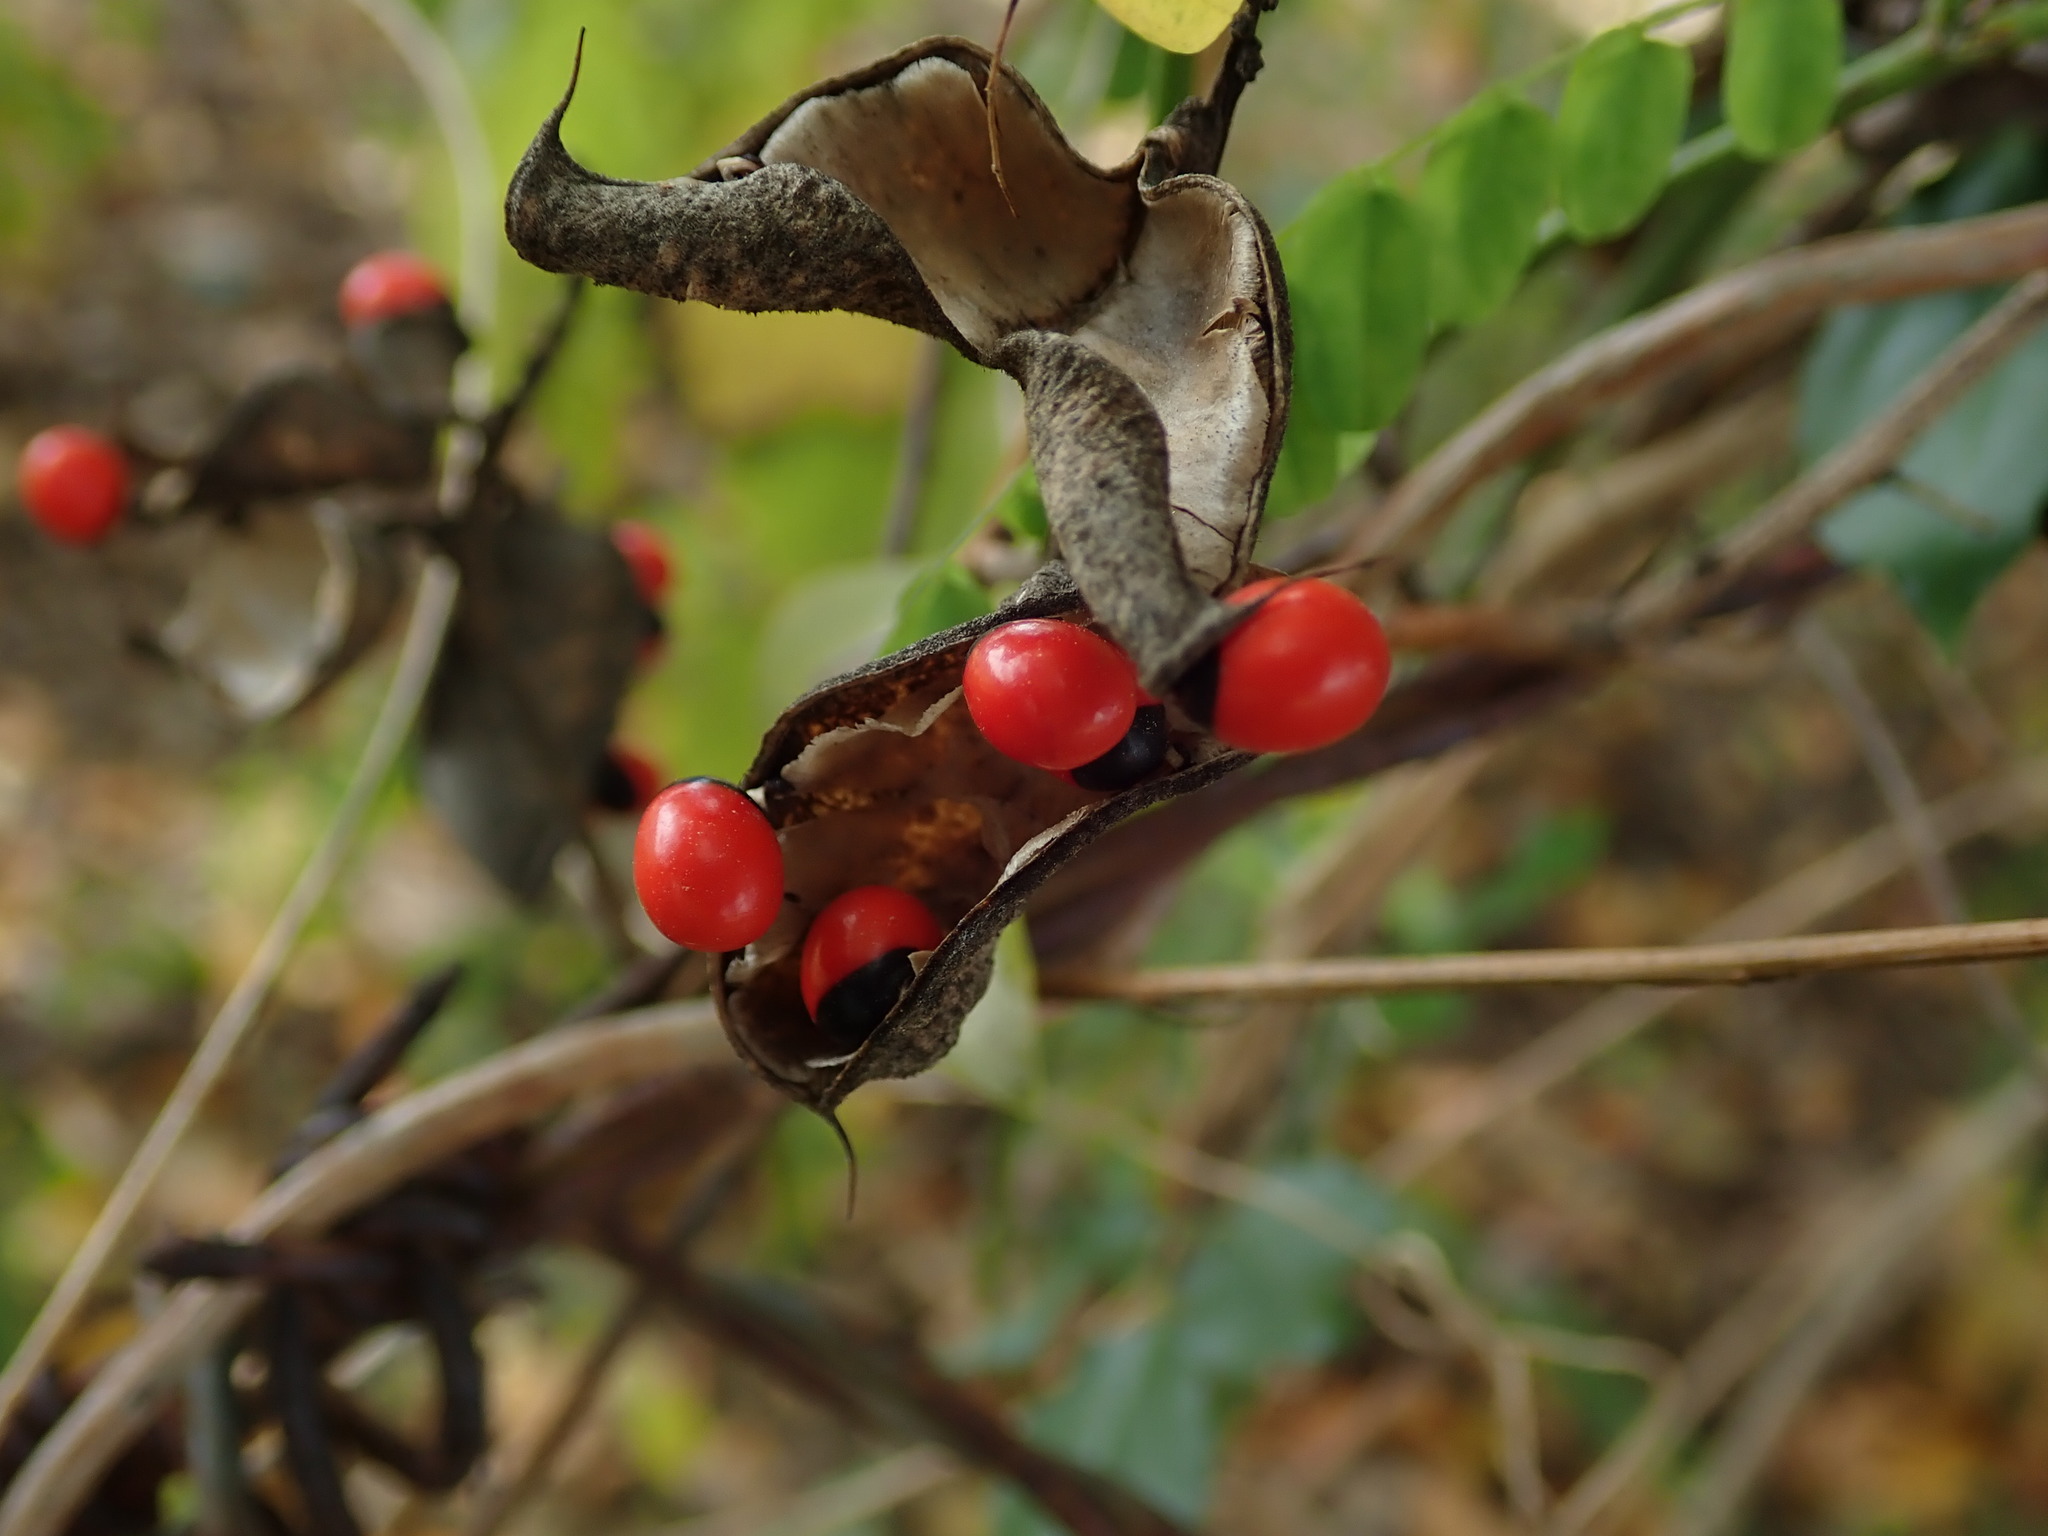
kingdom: Plantae
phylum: Tracheophyta
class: Magnoliopsida
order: Fabales
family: Fabaceae
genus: Abrus
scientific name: Abrus precatorius
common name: Rosarypea
